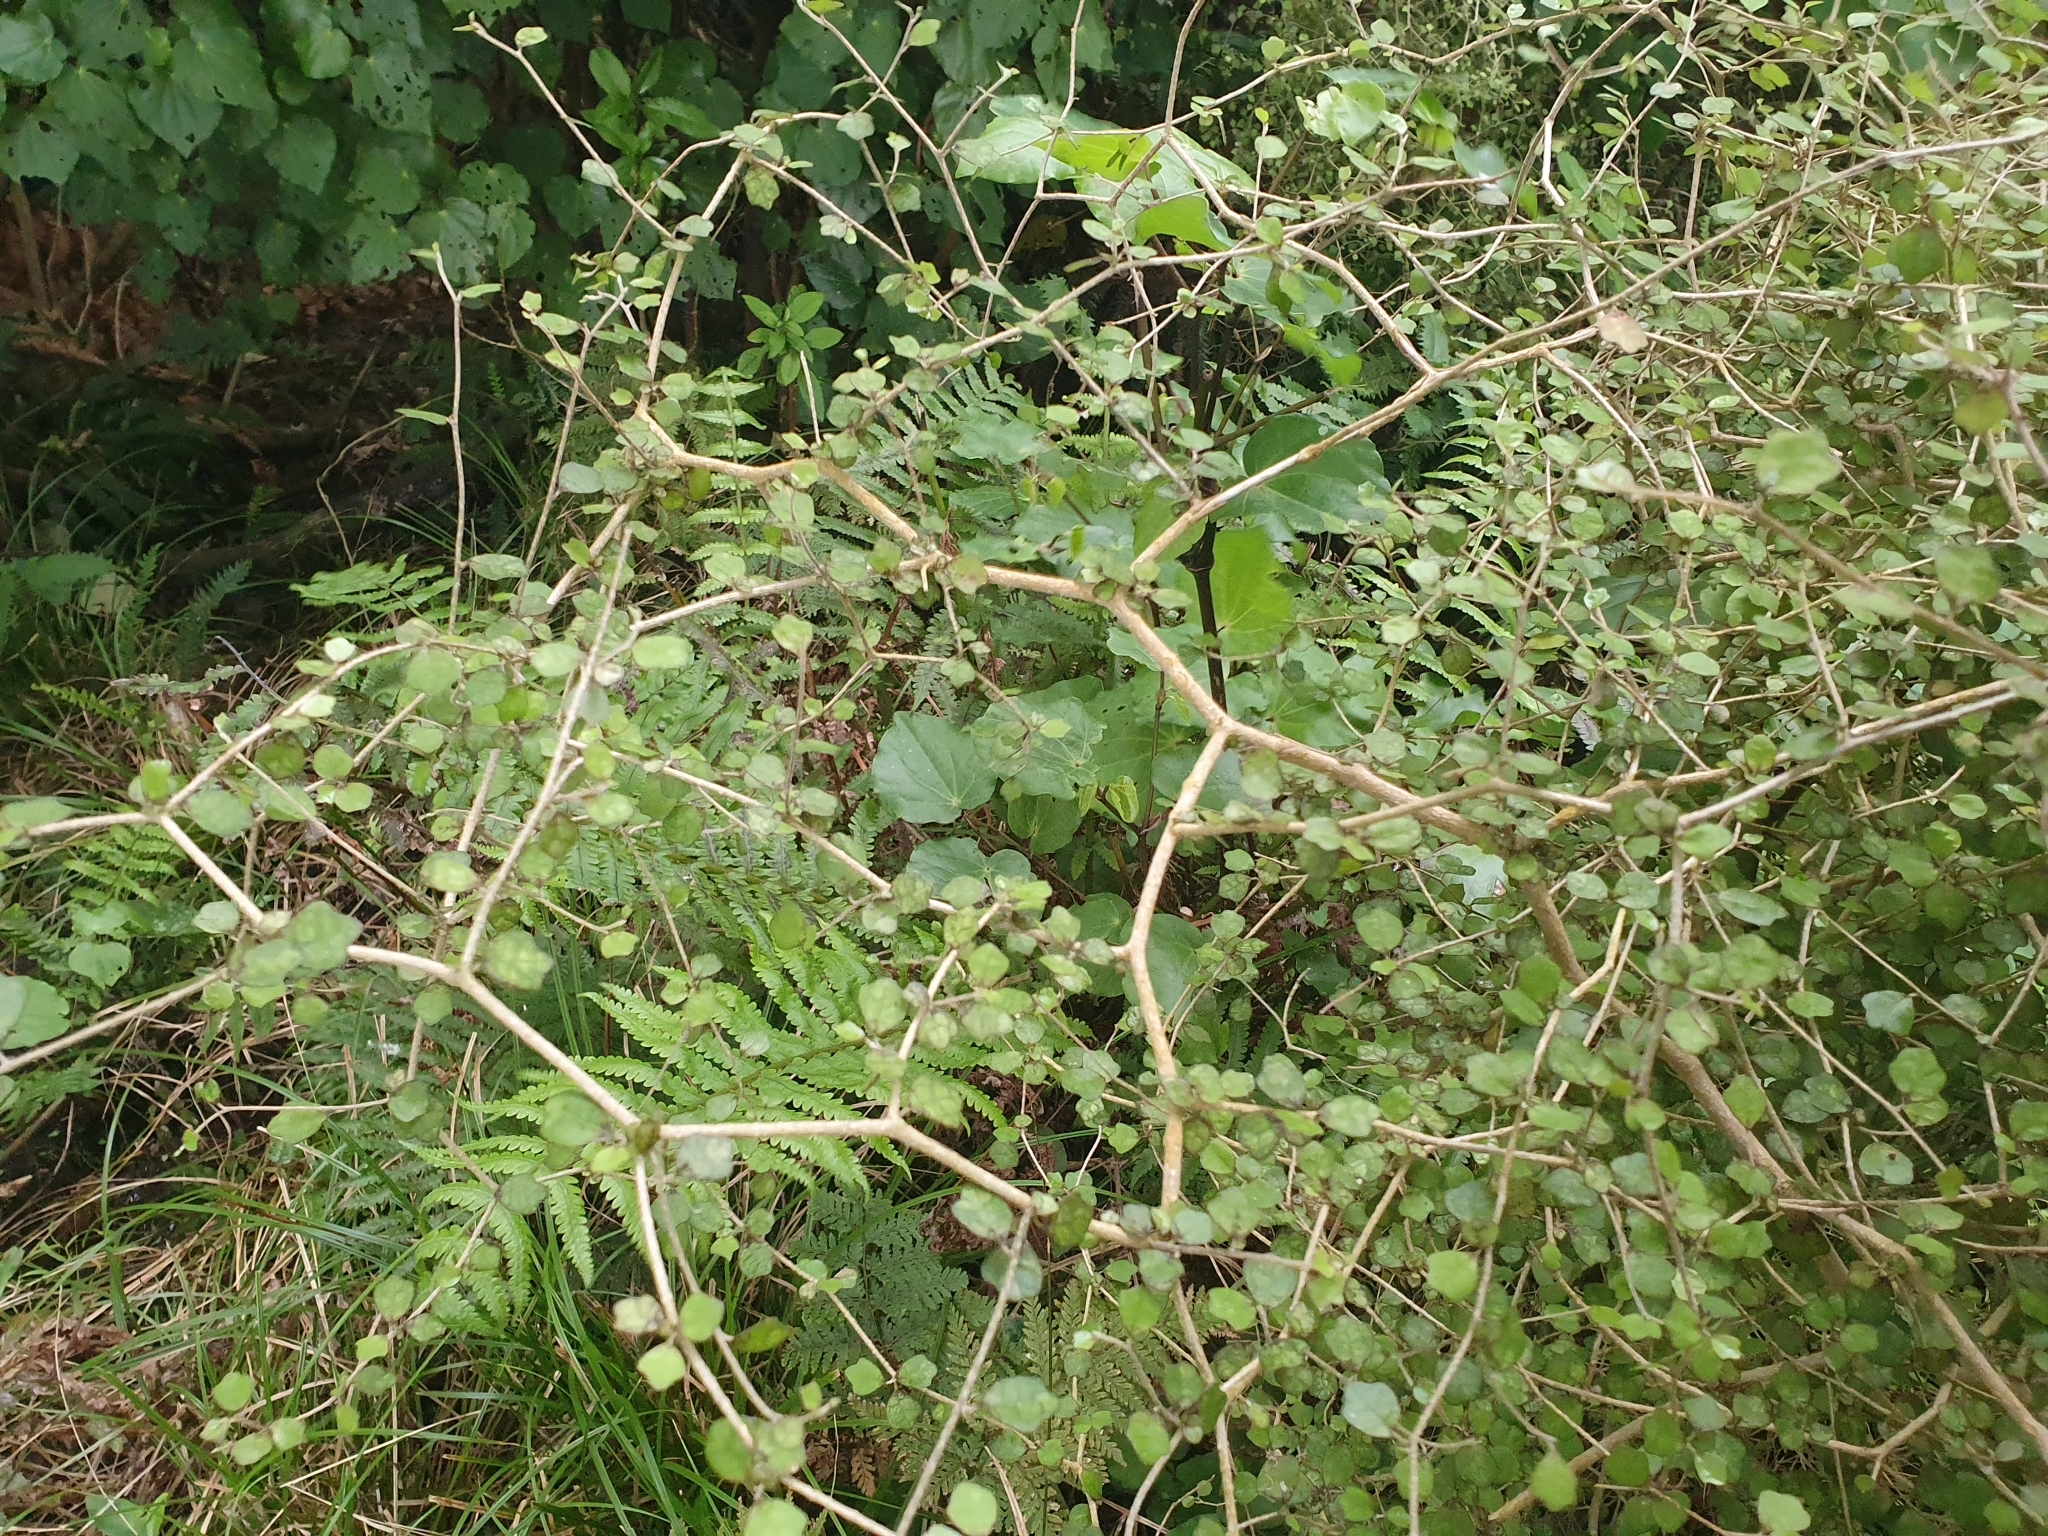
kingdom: Plantae
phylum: Tracheophyta
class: Magnoliopsida
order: Apiales
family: Pennantiaceae
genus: Pennantia
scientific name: Pennantia corymbosa
